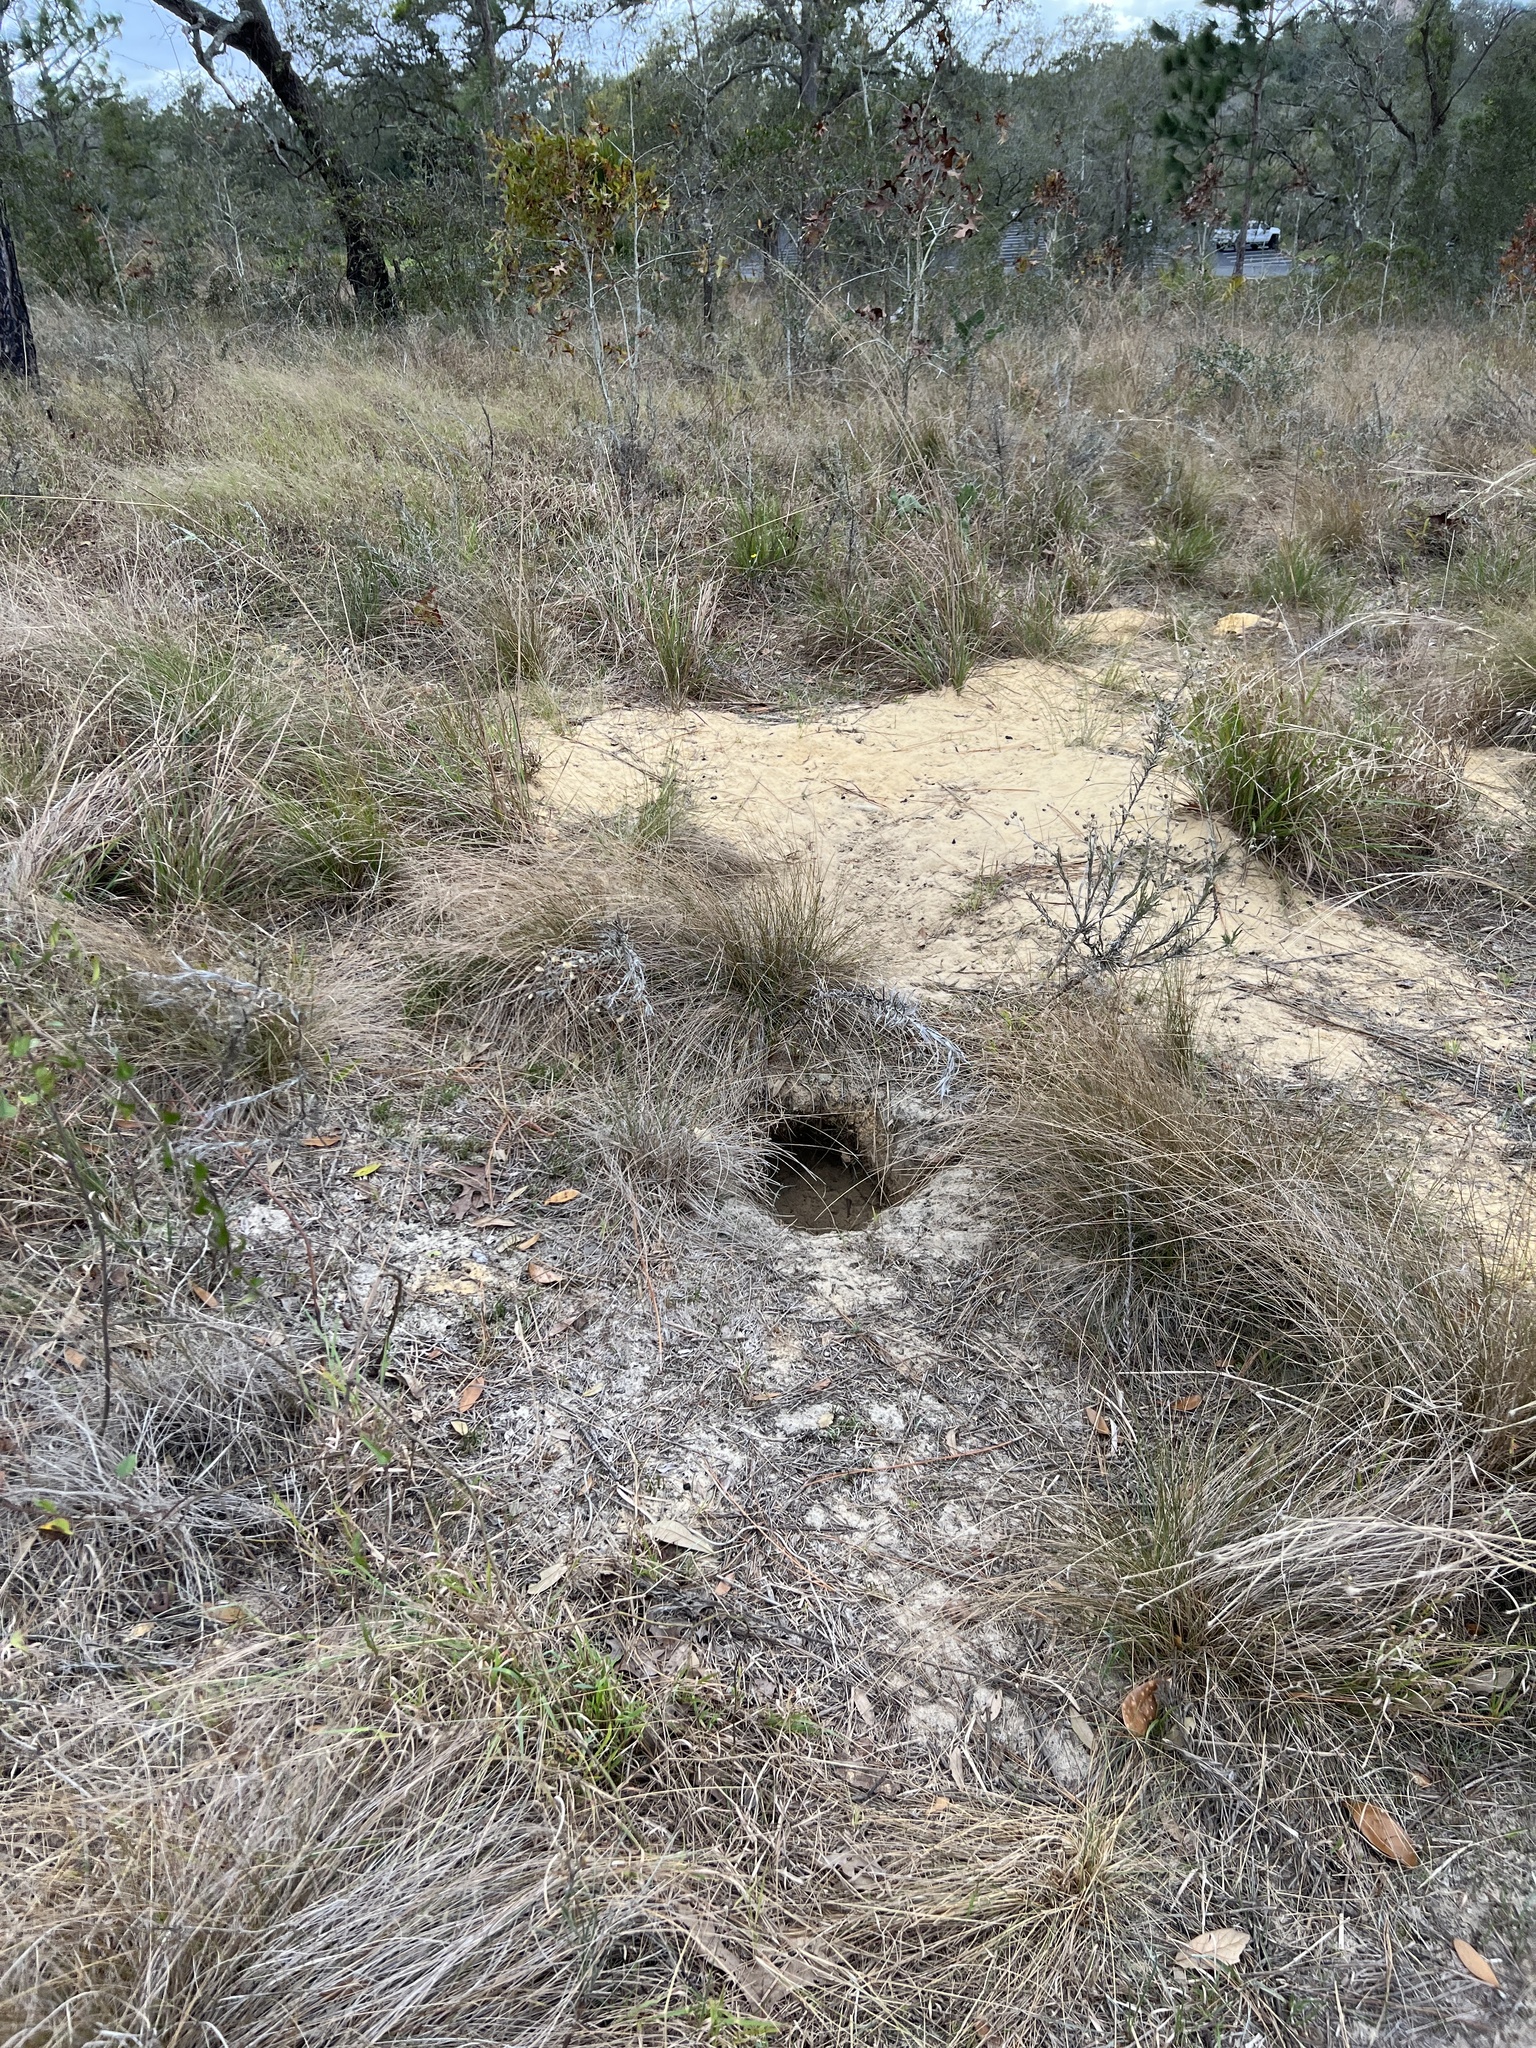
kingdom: Animalia
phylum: Chordata
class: Testudines
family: Testudinidae
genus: Gopherus
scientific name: Gopherus polyphemus
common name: Florida gopher tortoise
